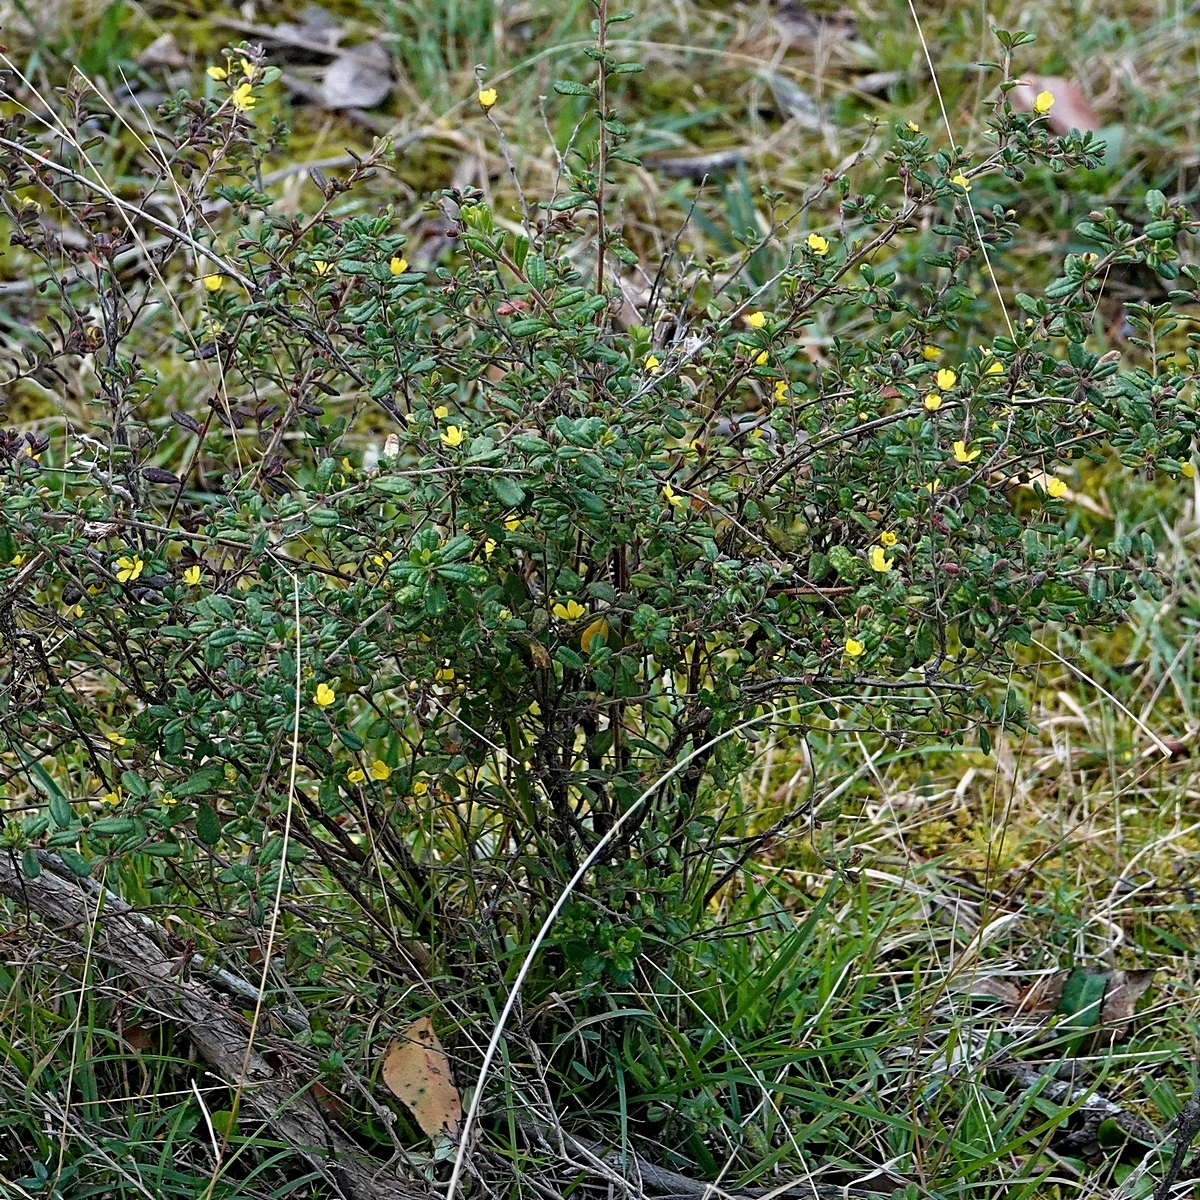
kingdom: Plantae
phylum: Tracheophyta
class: Magnoliopsida
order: Dilleniales
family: Dilleniaceae
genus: Hibbertia
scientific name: Hibbertia aspera
